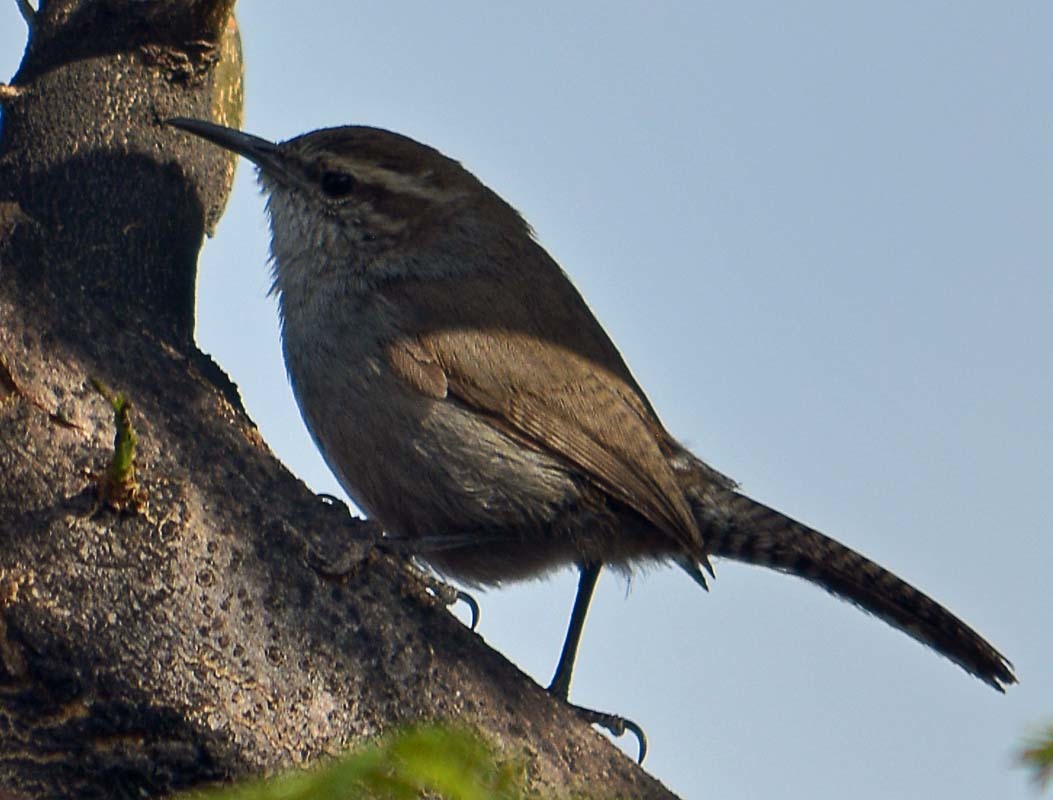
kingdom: Animalia
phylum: Chordata
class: Aves
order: Passeriformes
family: Troglodytidae
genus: Thryomanes
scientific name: Thryomanes bewickii
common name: Bewick's wren
